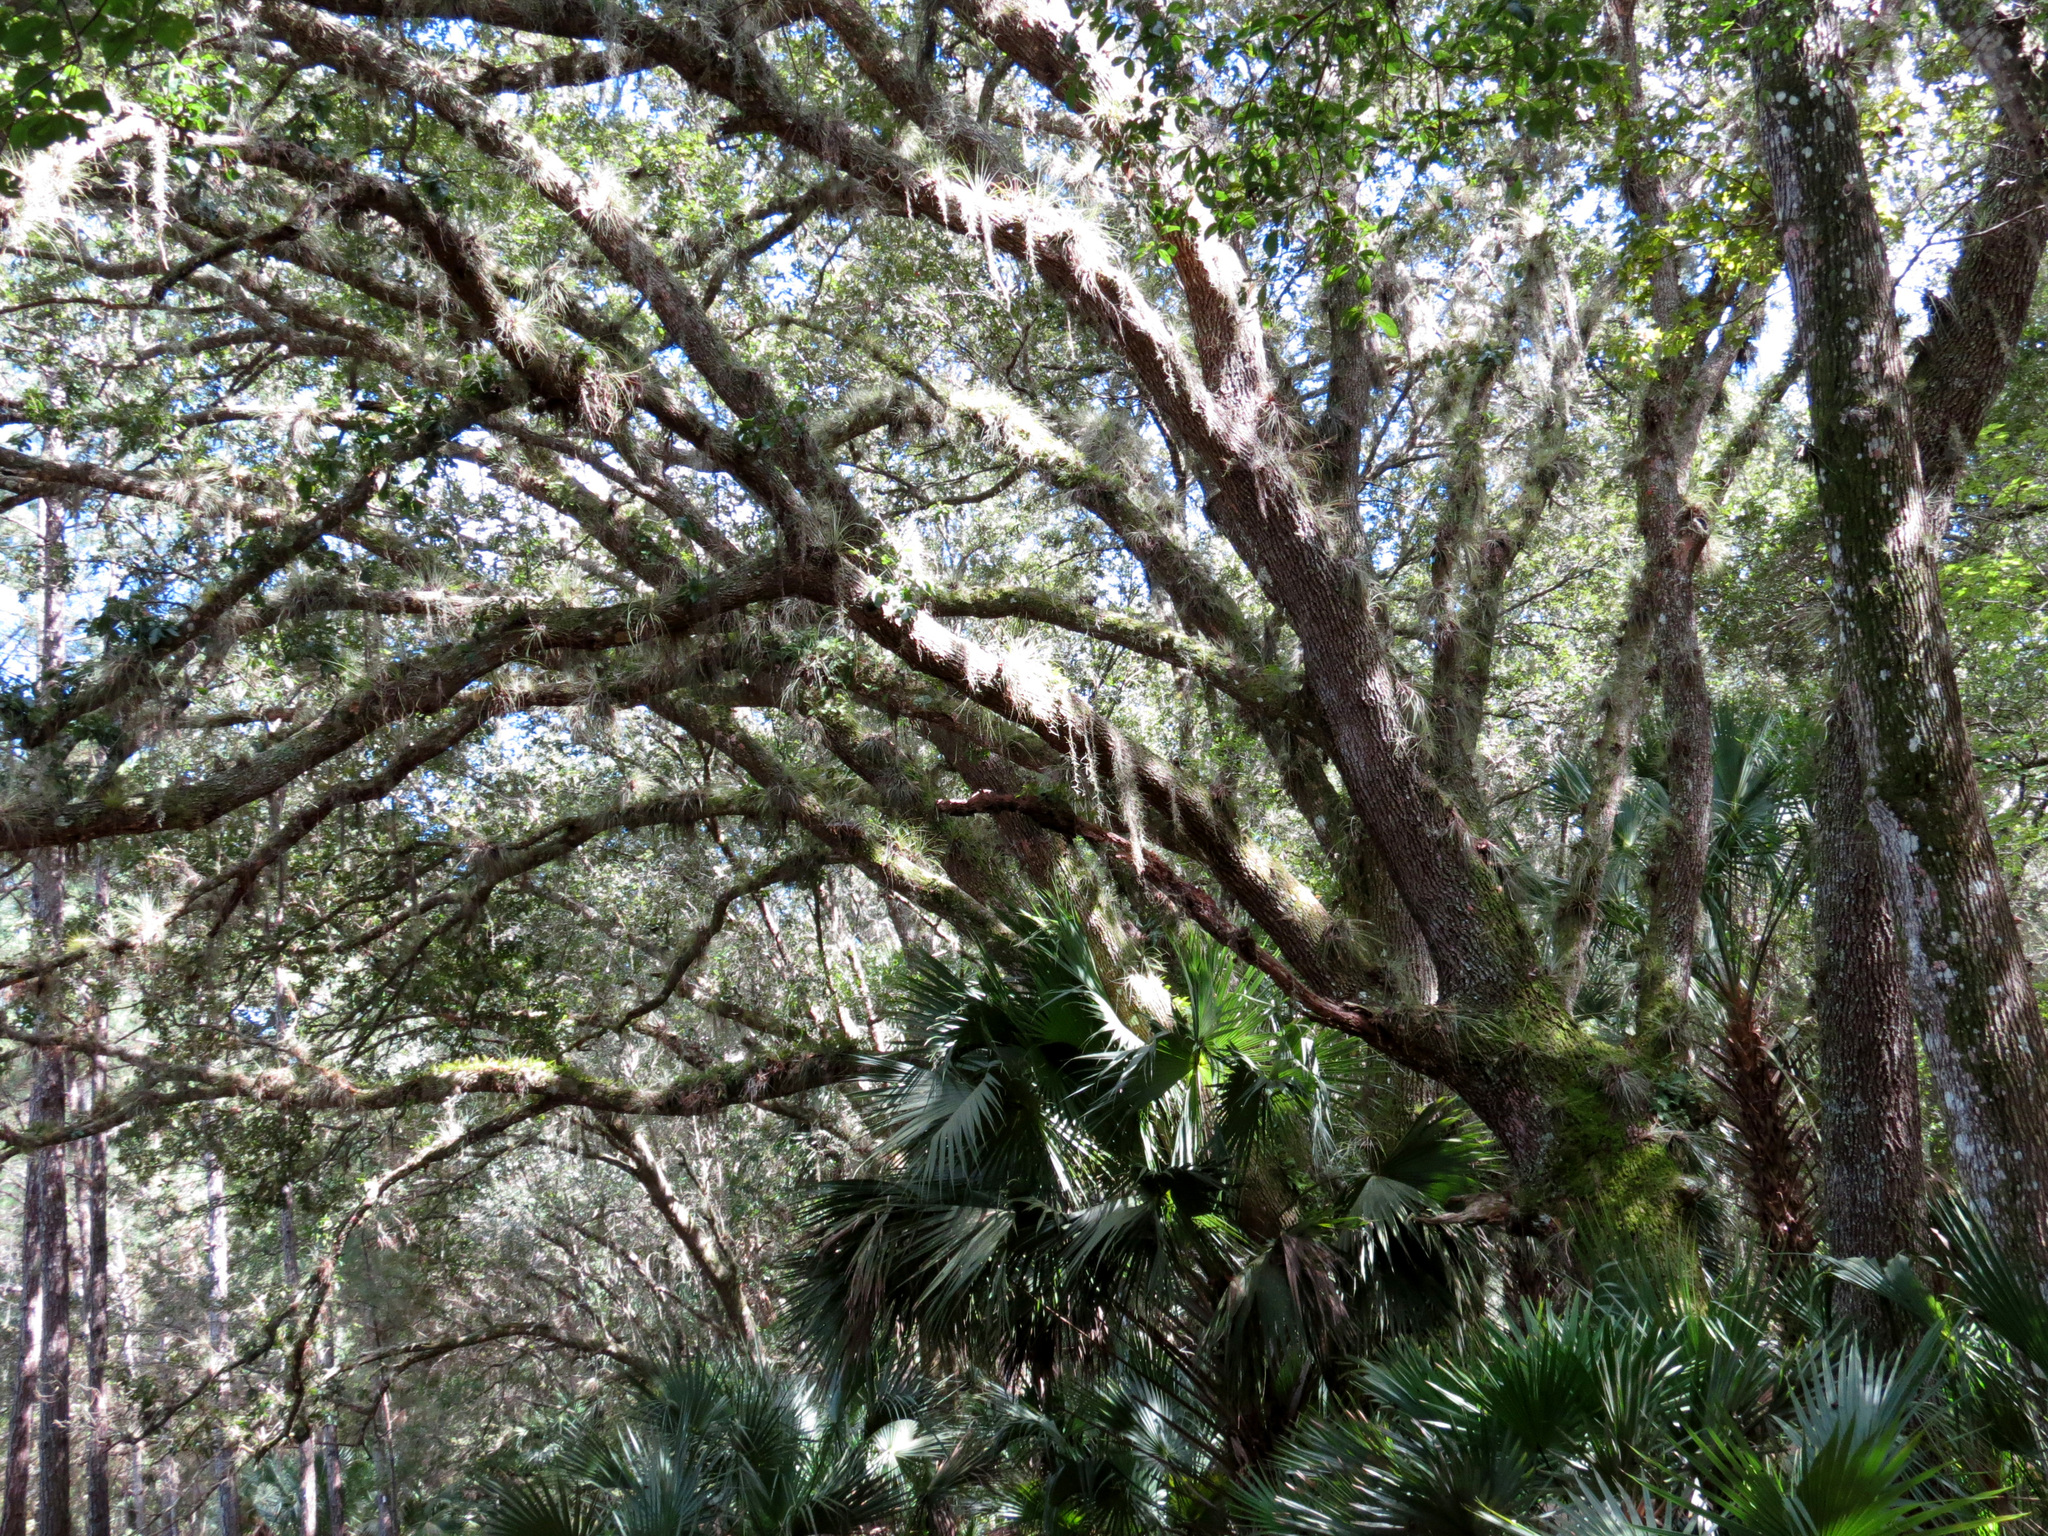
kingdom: Plantae
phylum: Tracheophyta
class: Magnoliopsida
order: Fagales
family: Fagaceae
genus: Quercus
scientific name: Quercus virginiana
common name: Southern live oak
